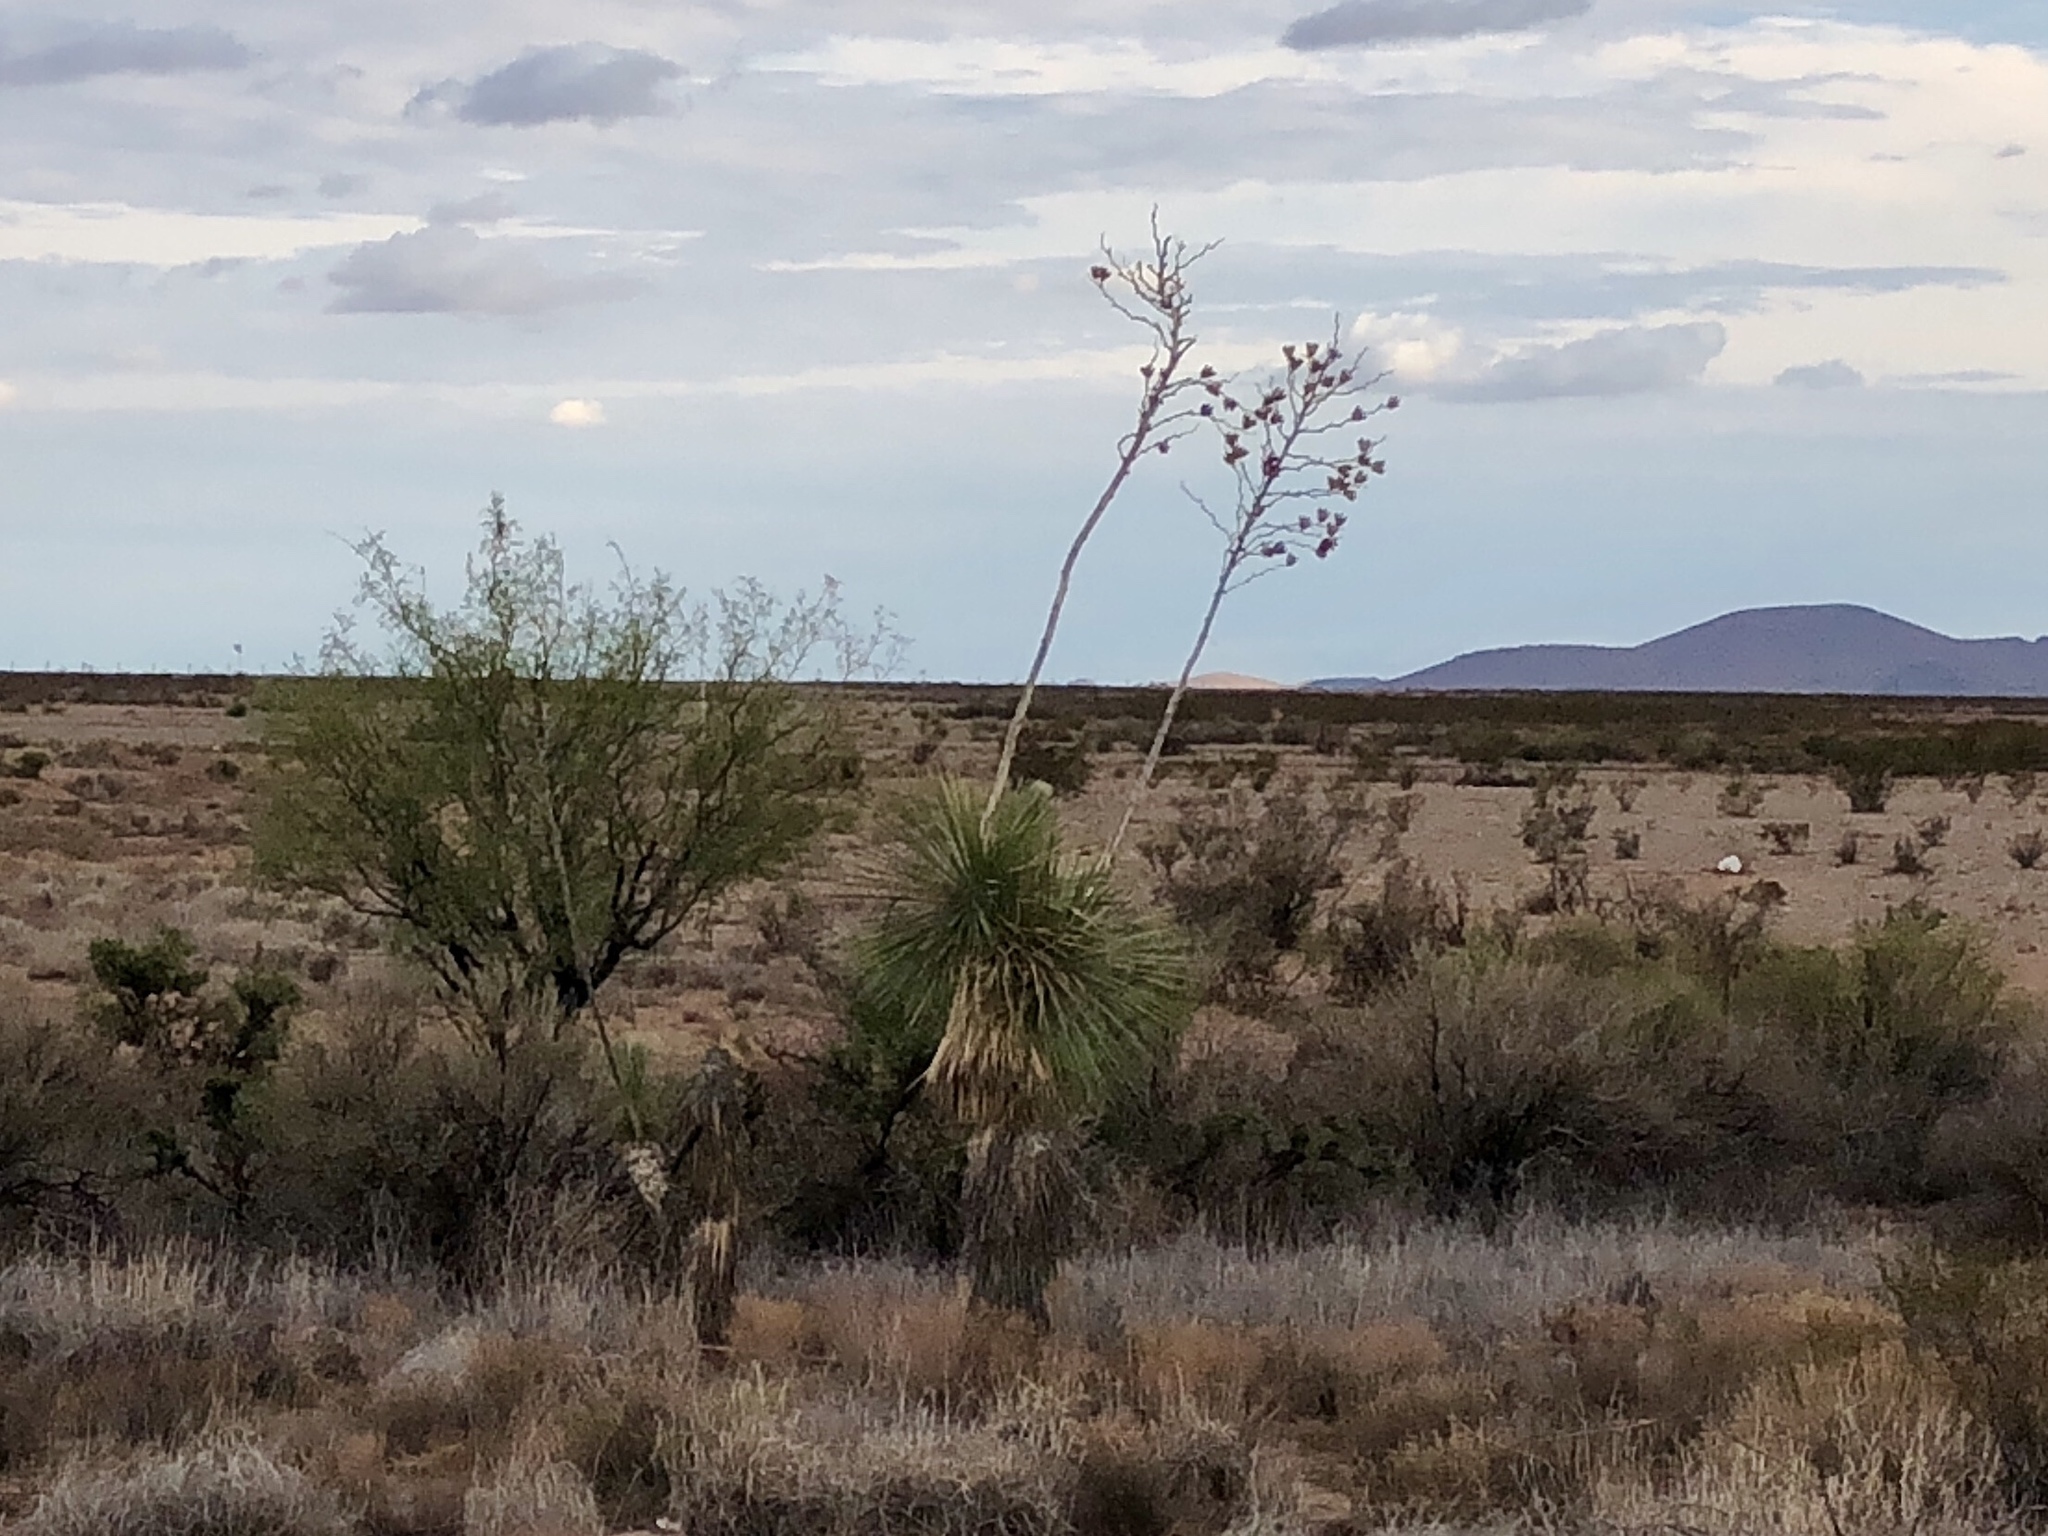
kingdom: Plantae
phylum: Tracheophyta
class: Liliopsida
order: Asparagales
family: Asparagaceae
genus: Yucca
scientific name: Yucca elata
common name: Palmella
